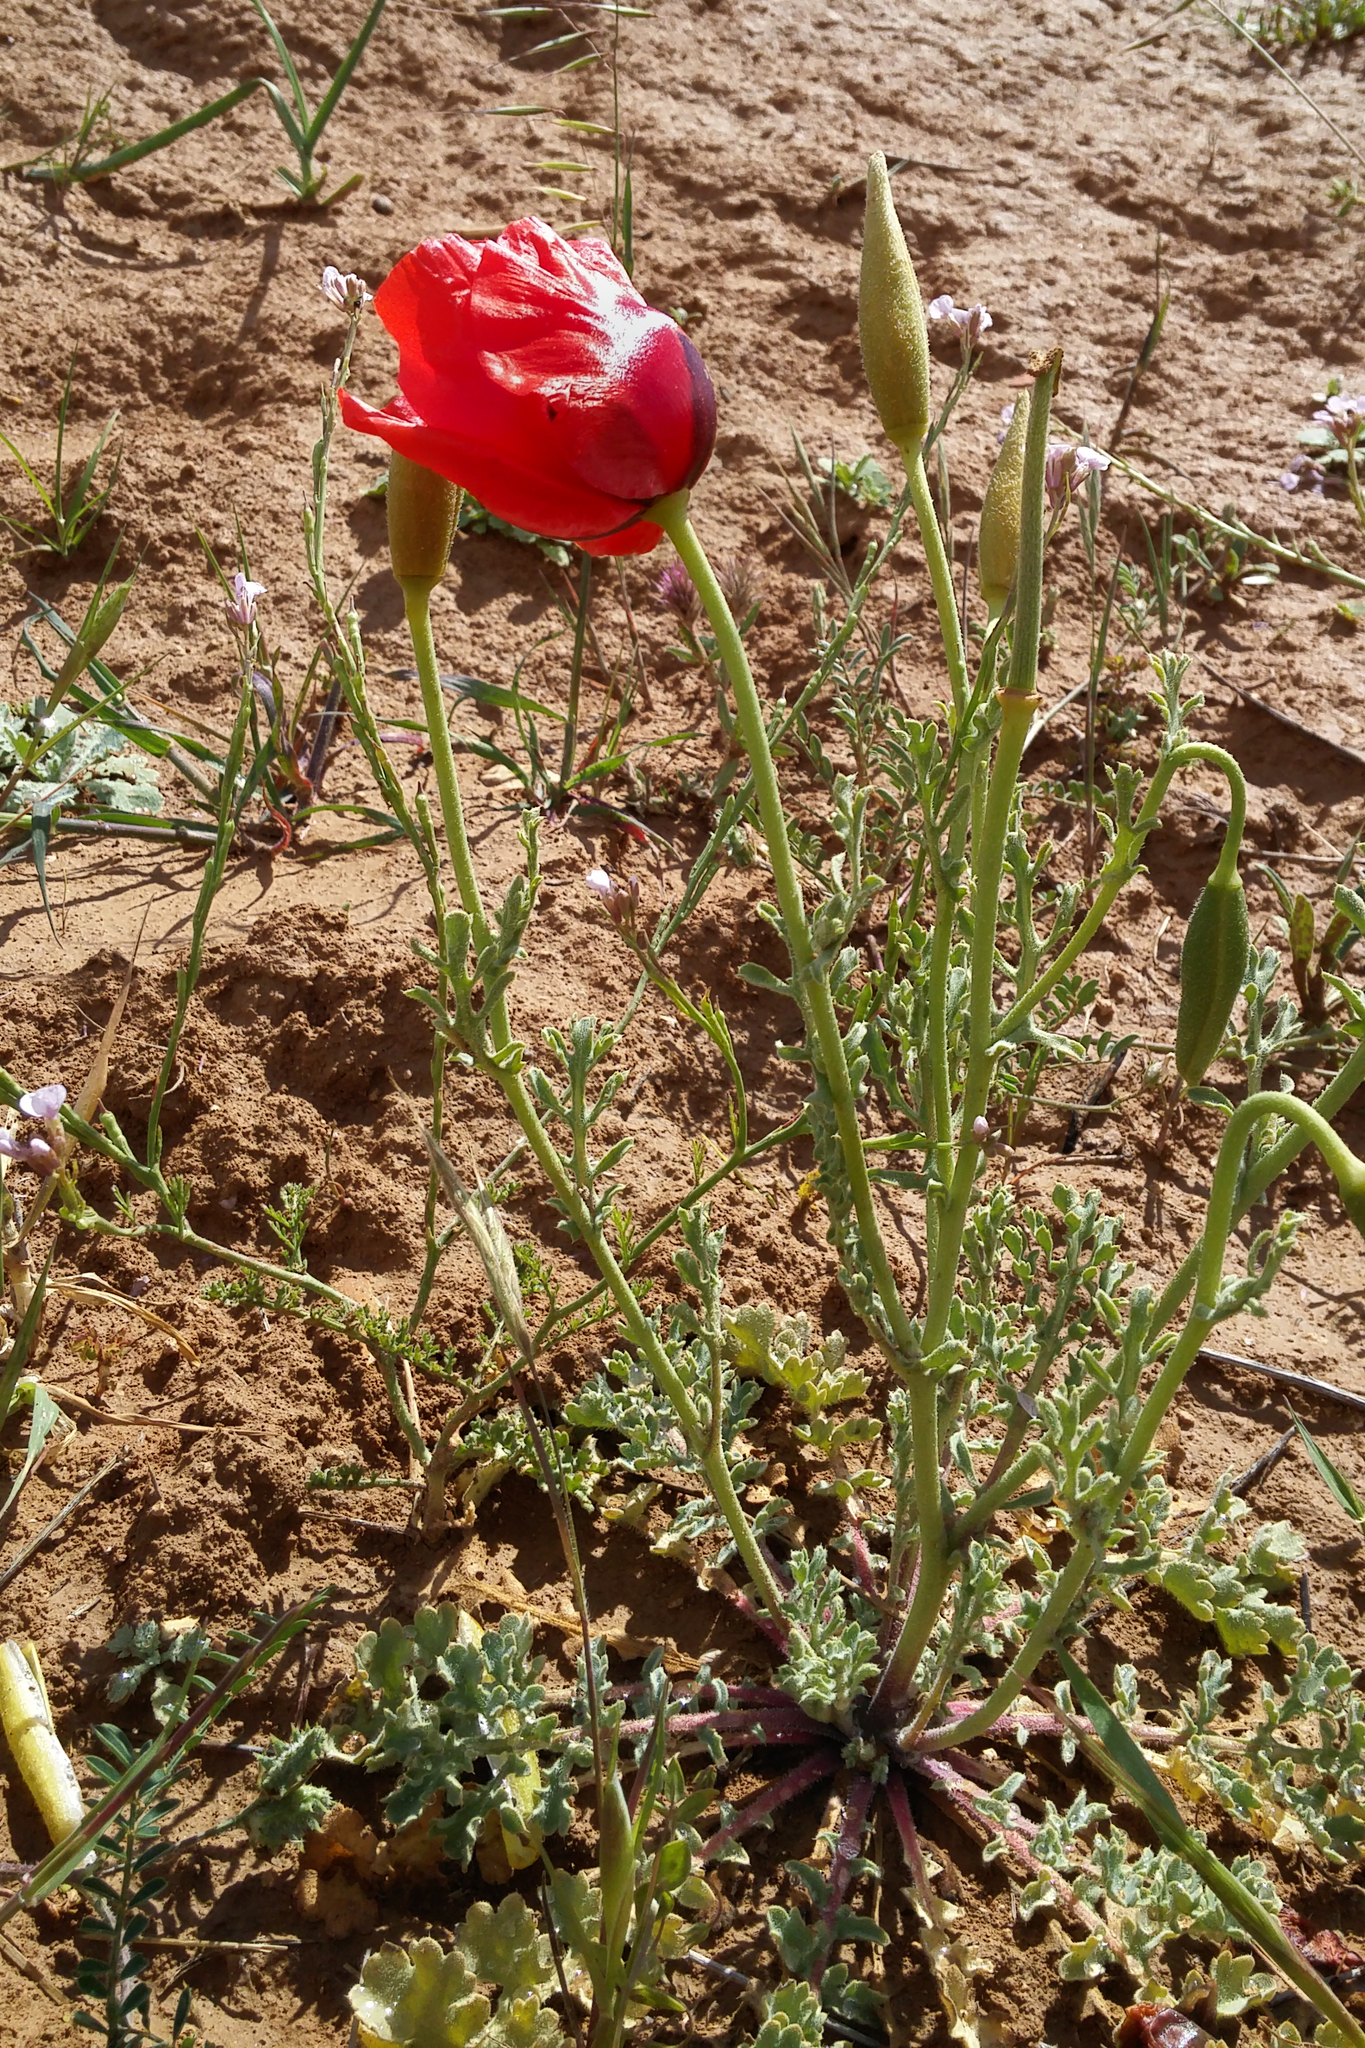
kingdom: Plantae
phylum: Tracheophyta
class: Magnoliopsida
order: Ranunculales
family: Papaveraceae
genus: Glaucium
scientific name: Glaucium grandiflorum
